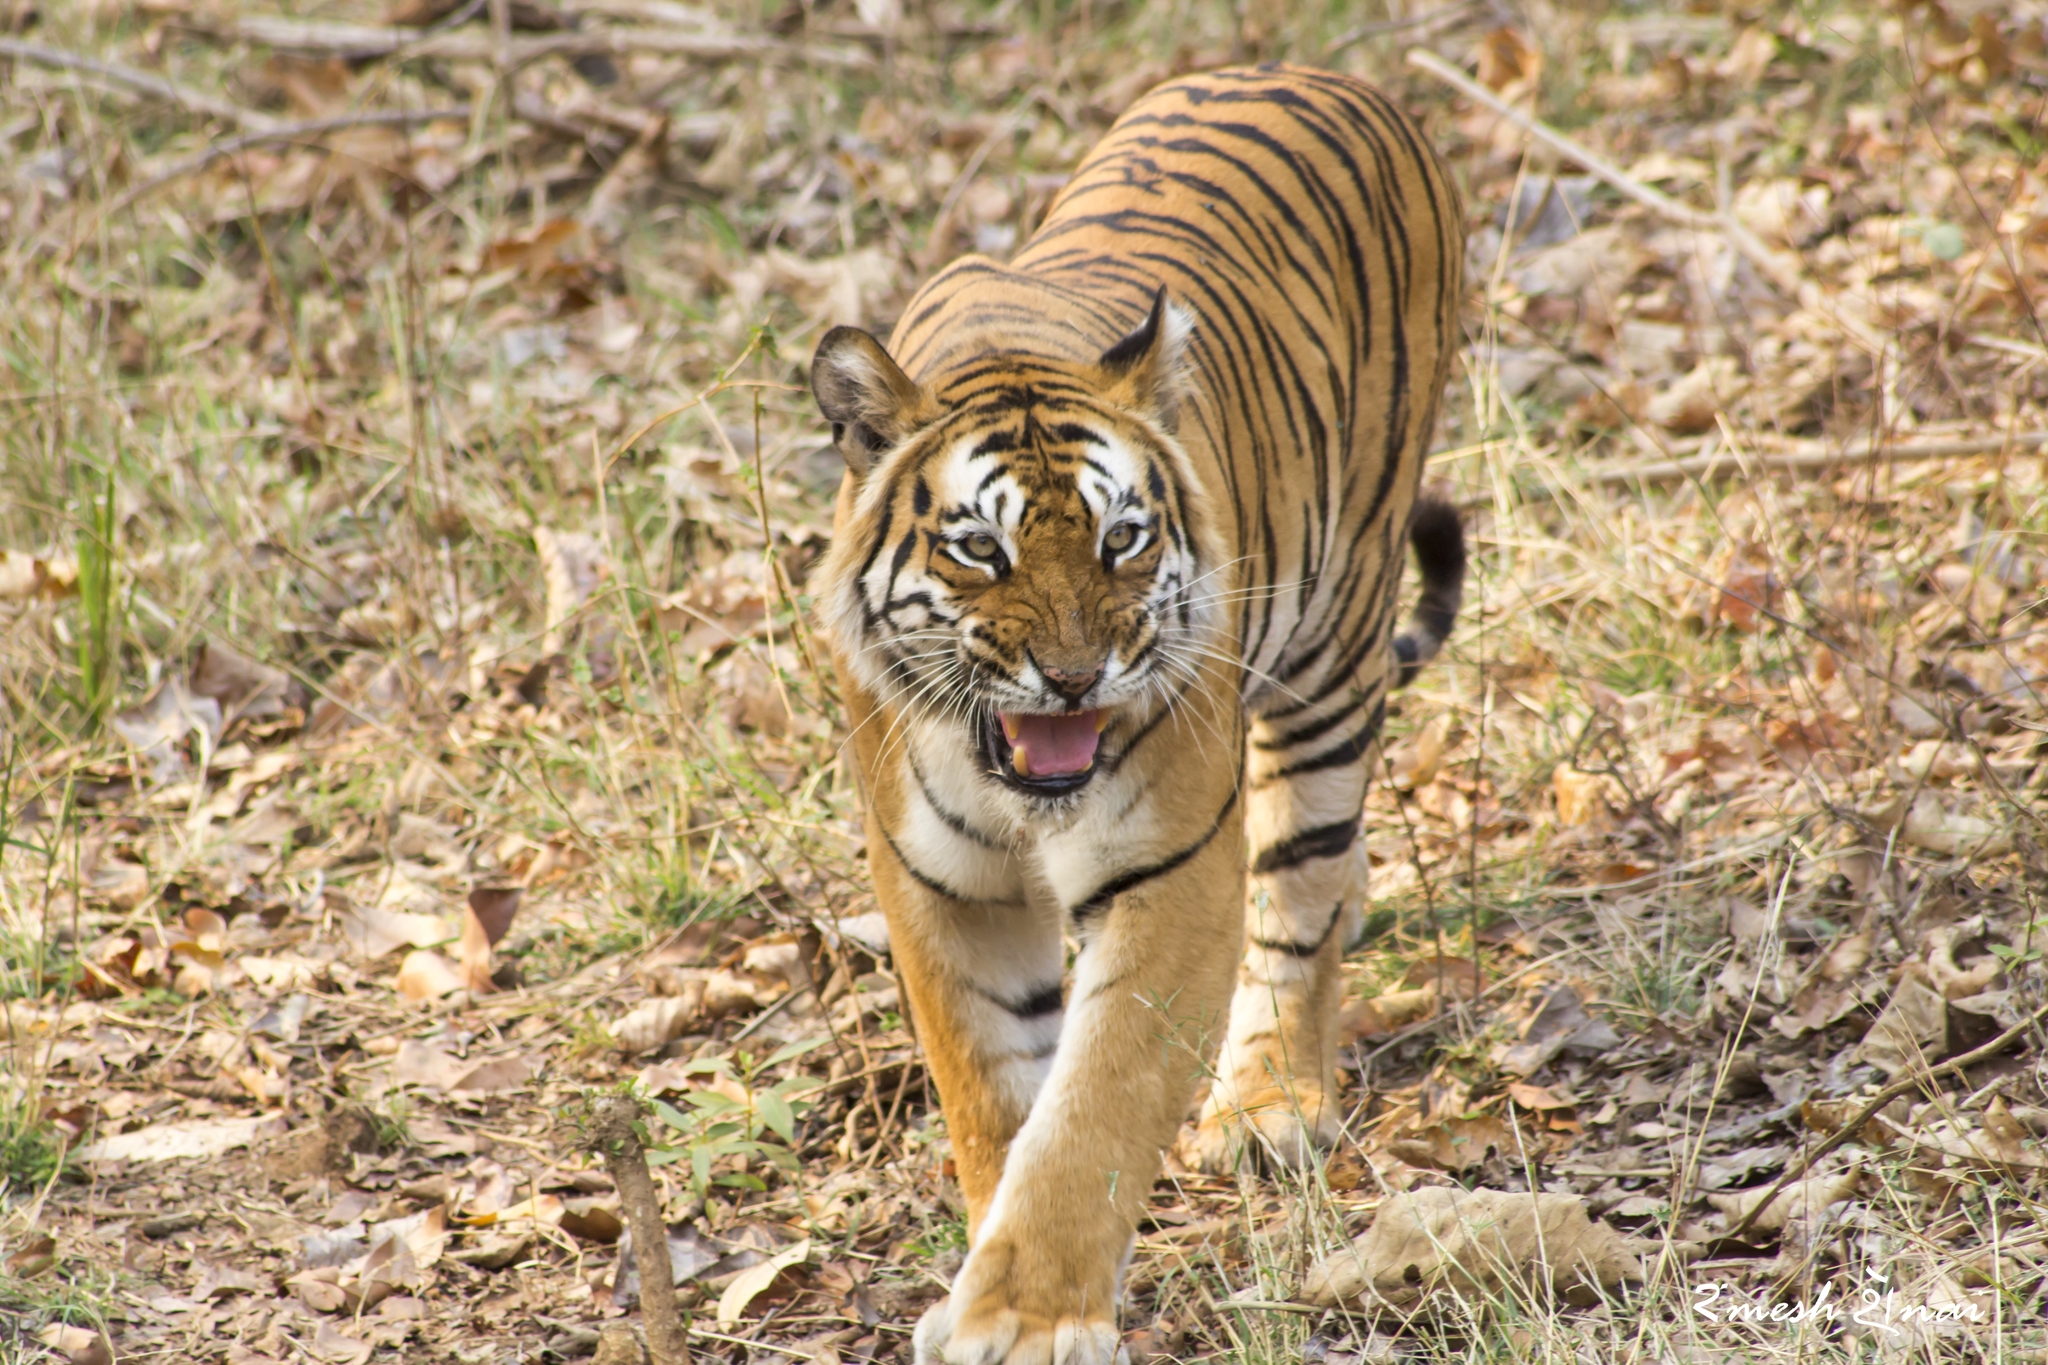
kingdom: Animalia
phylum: Chordata
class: Mammalia
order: Carnivora
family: Felidae
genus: Panthera
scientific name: Panthera tigris
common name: Tiger
